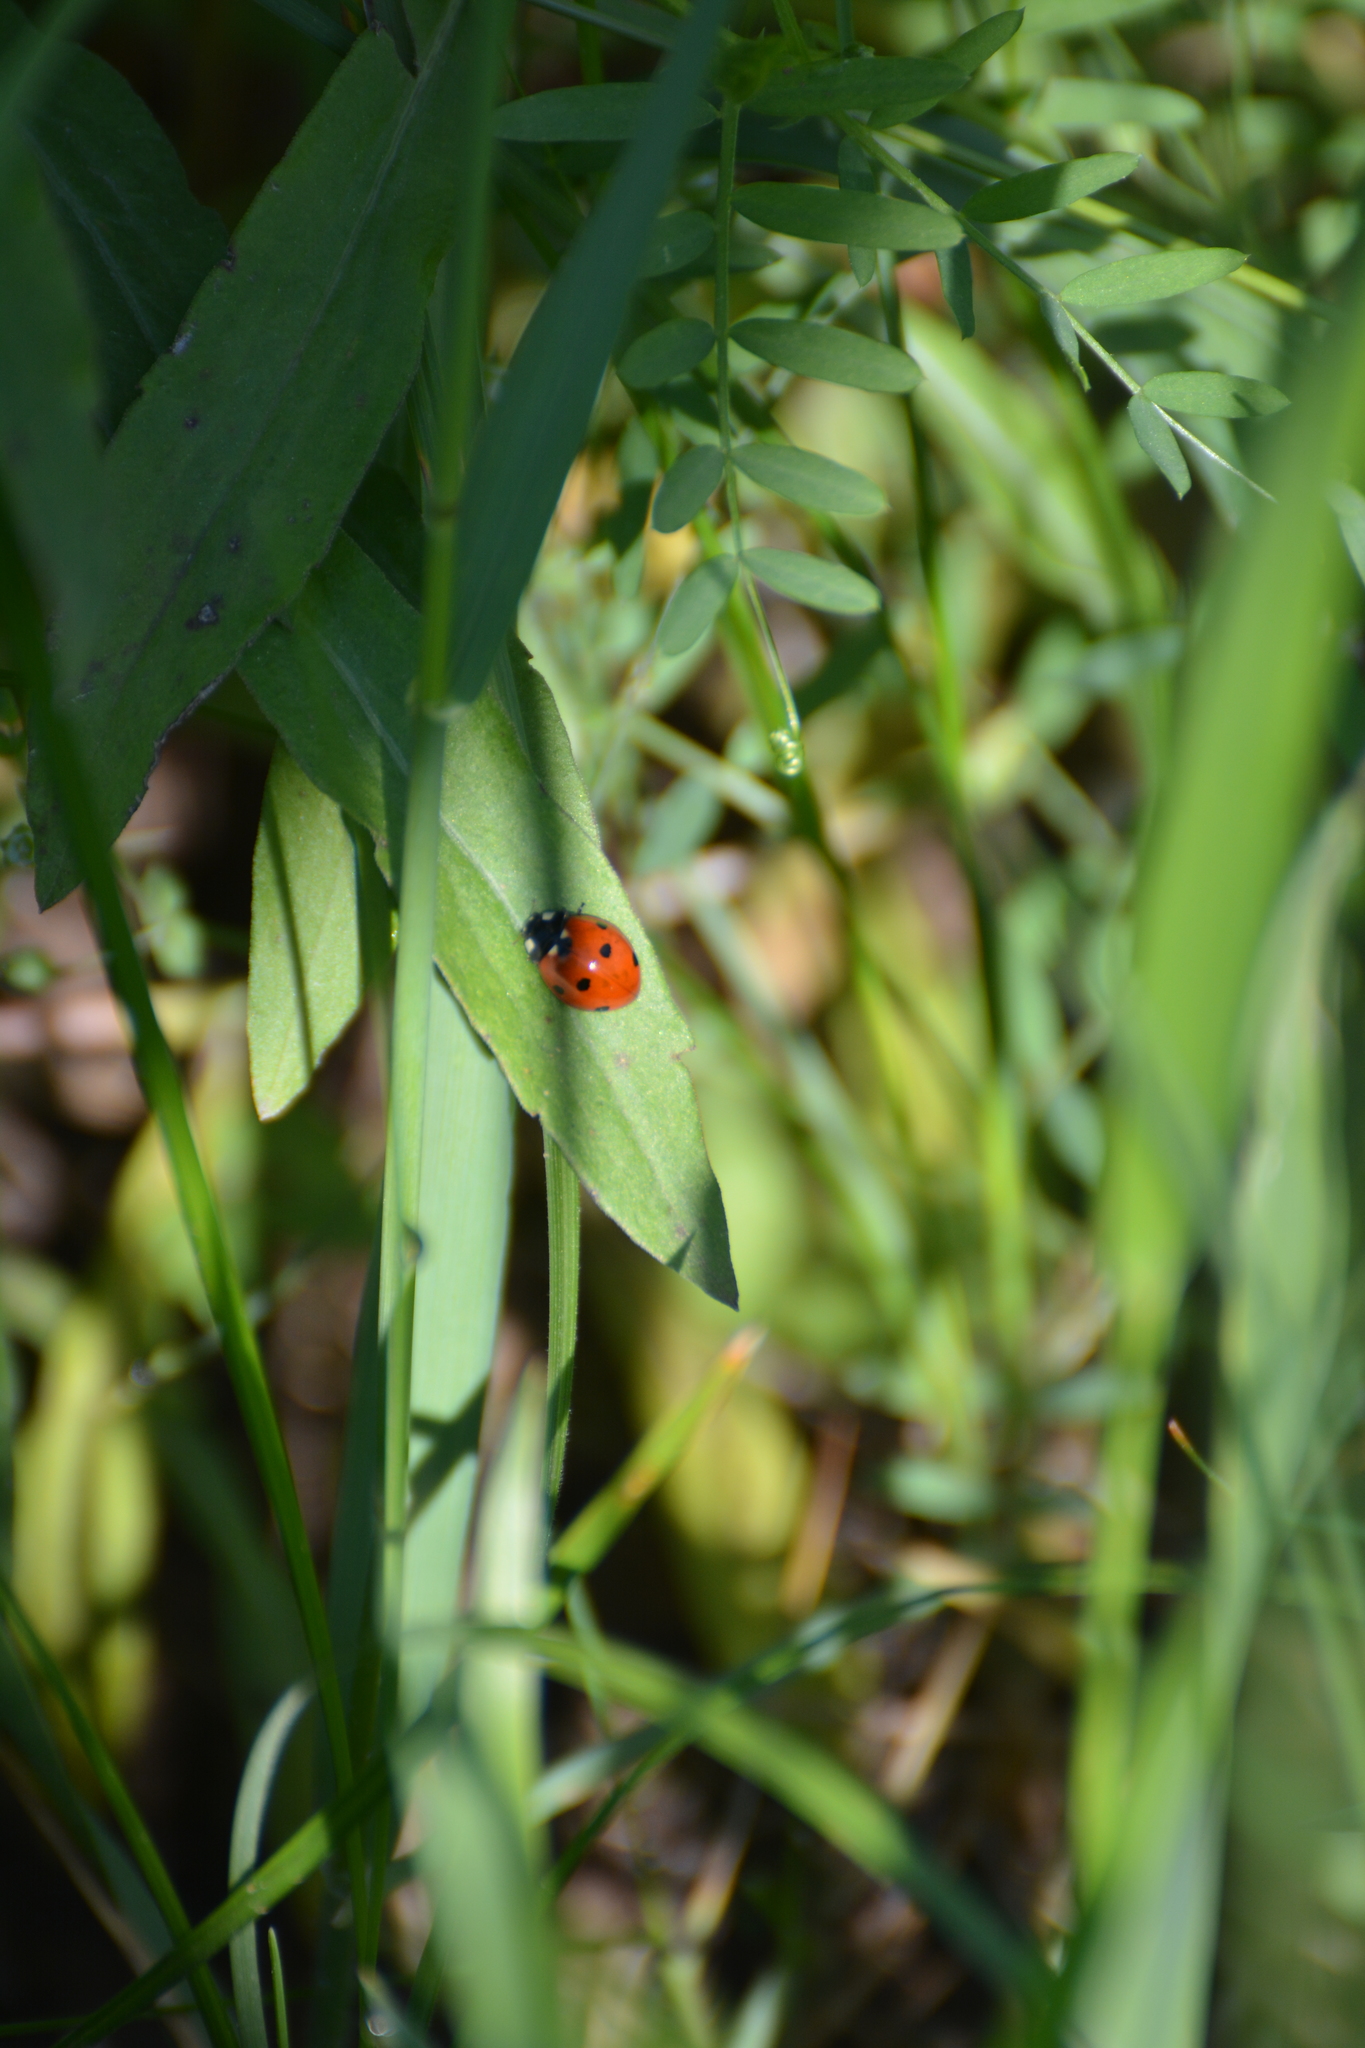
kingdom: Animalia
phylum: Arthropoda
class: Insecta
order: Coleoptera
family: Coccinellidae
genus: Coccinella
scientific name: Coccinella septempunctata
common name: Sevenspotted lady beetle
